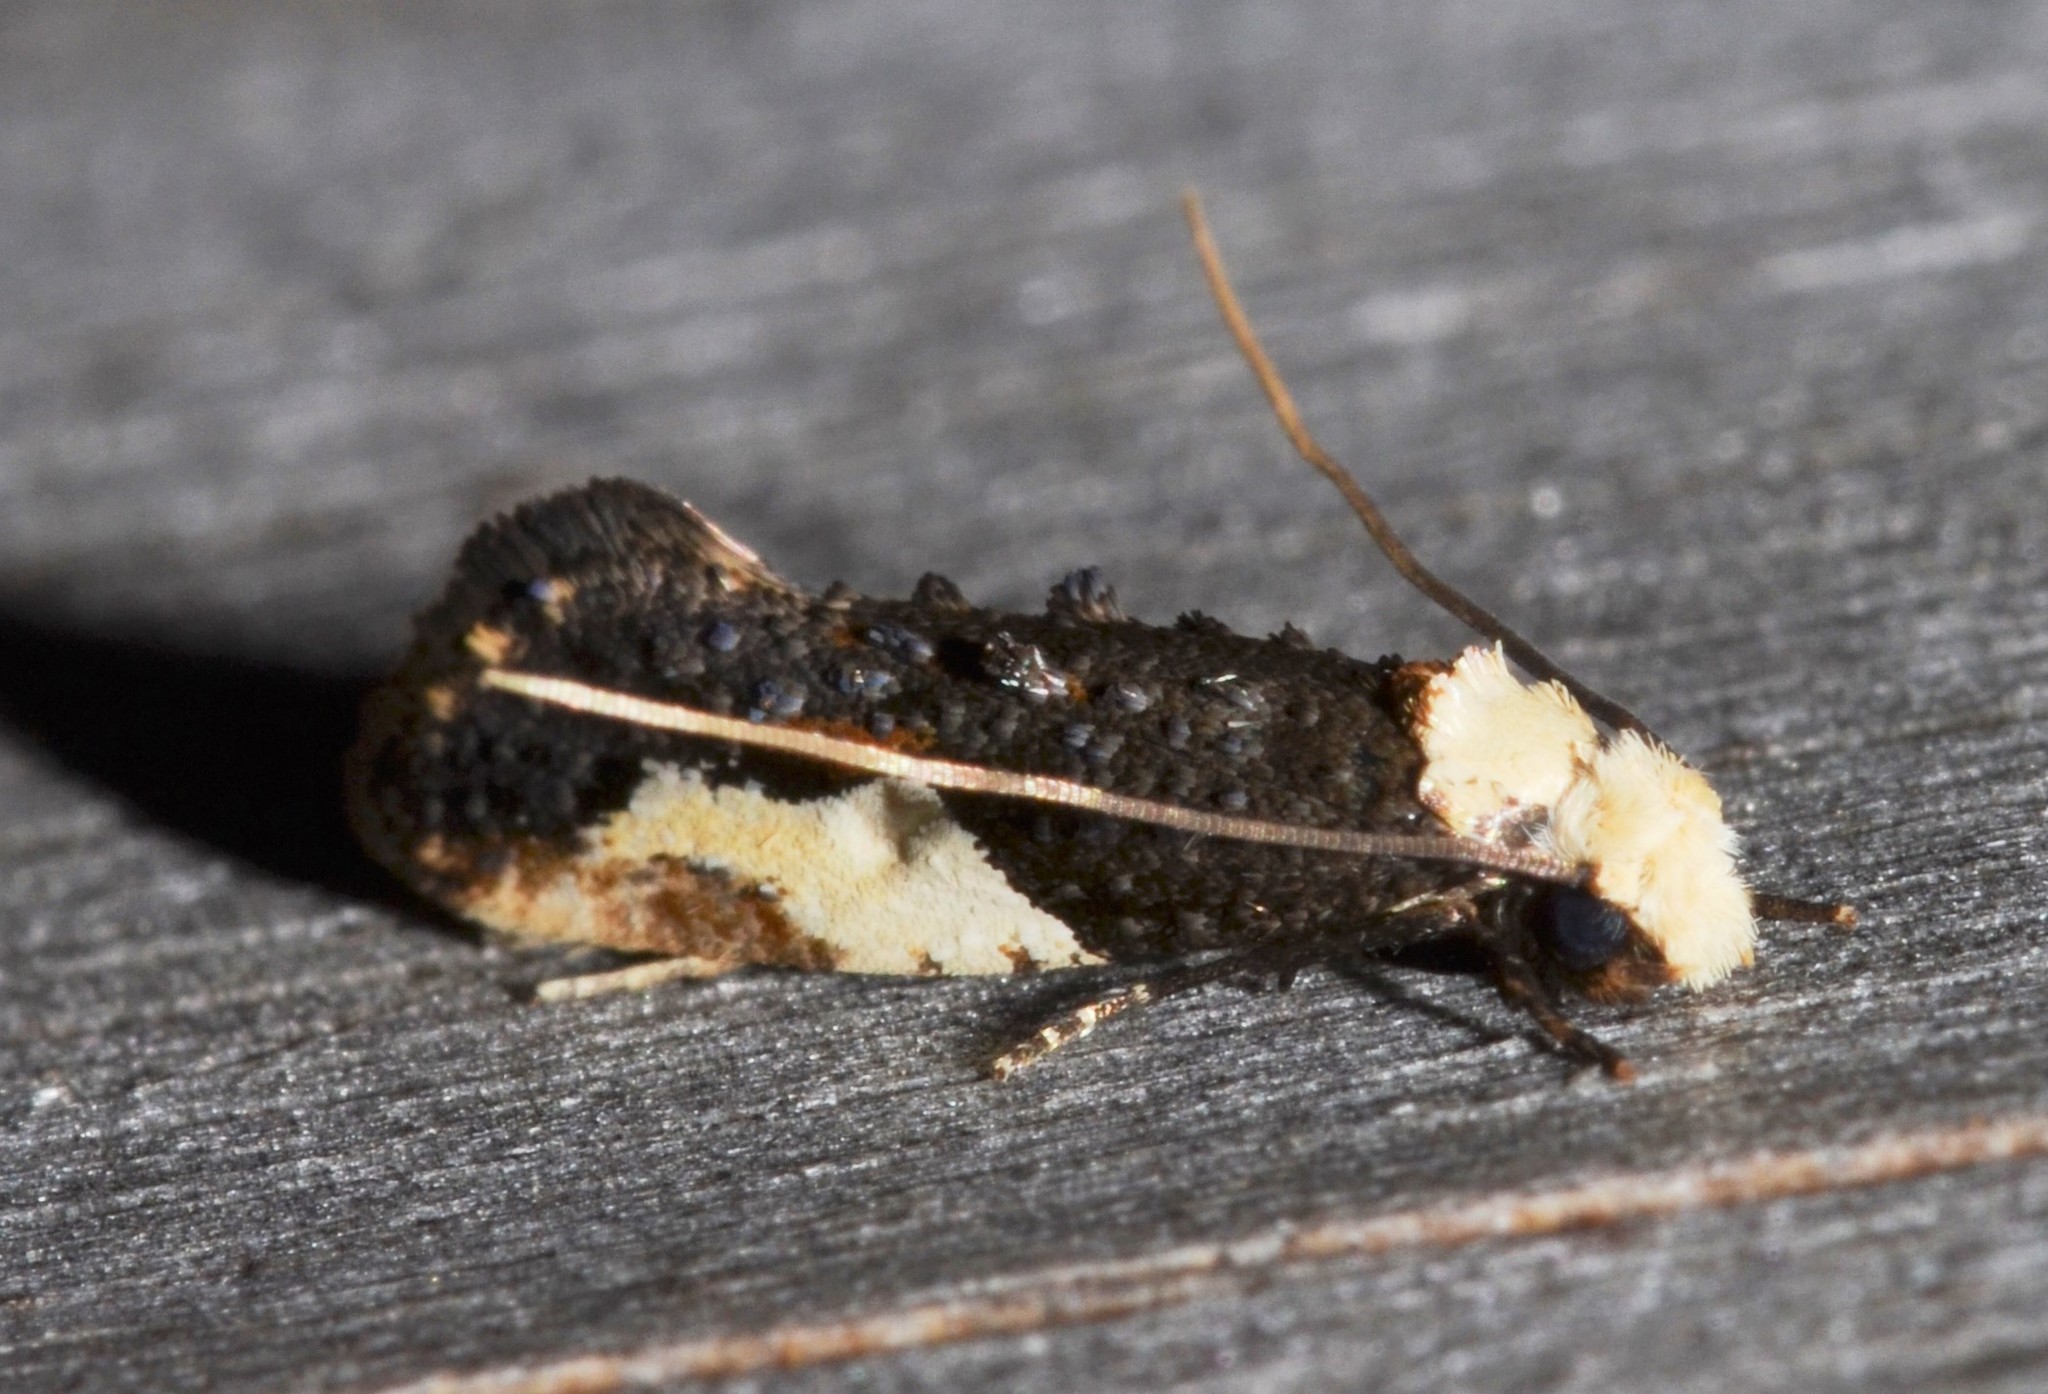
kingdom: Animalia
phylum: Arthropoda
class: Insecta
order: Lepidoptera
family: Tineidae
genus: Monopis
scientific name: Monopis longella
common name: Pavlovski's monopis moth
